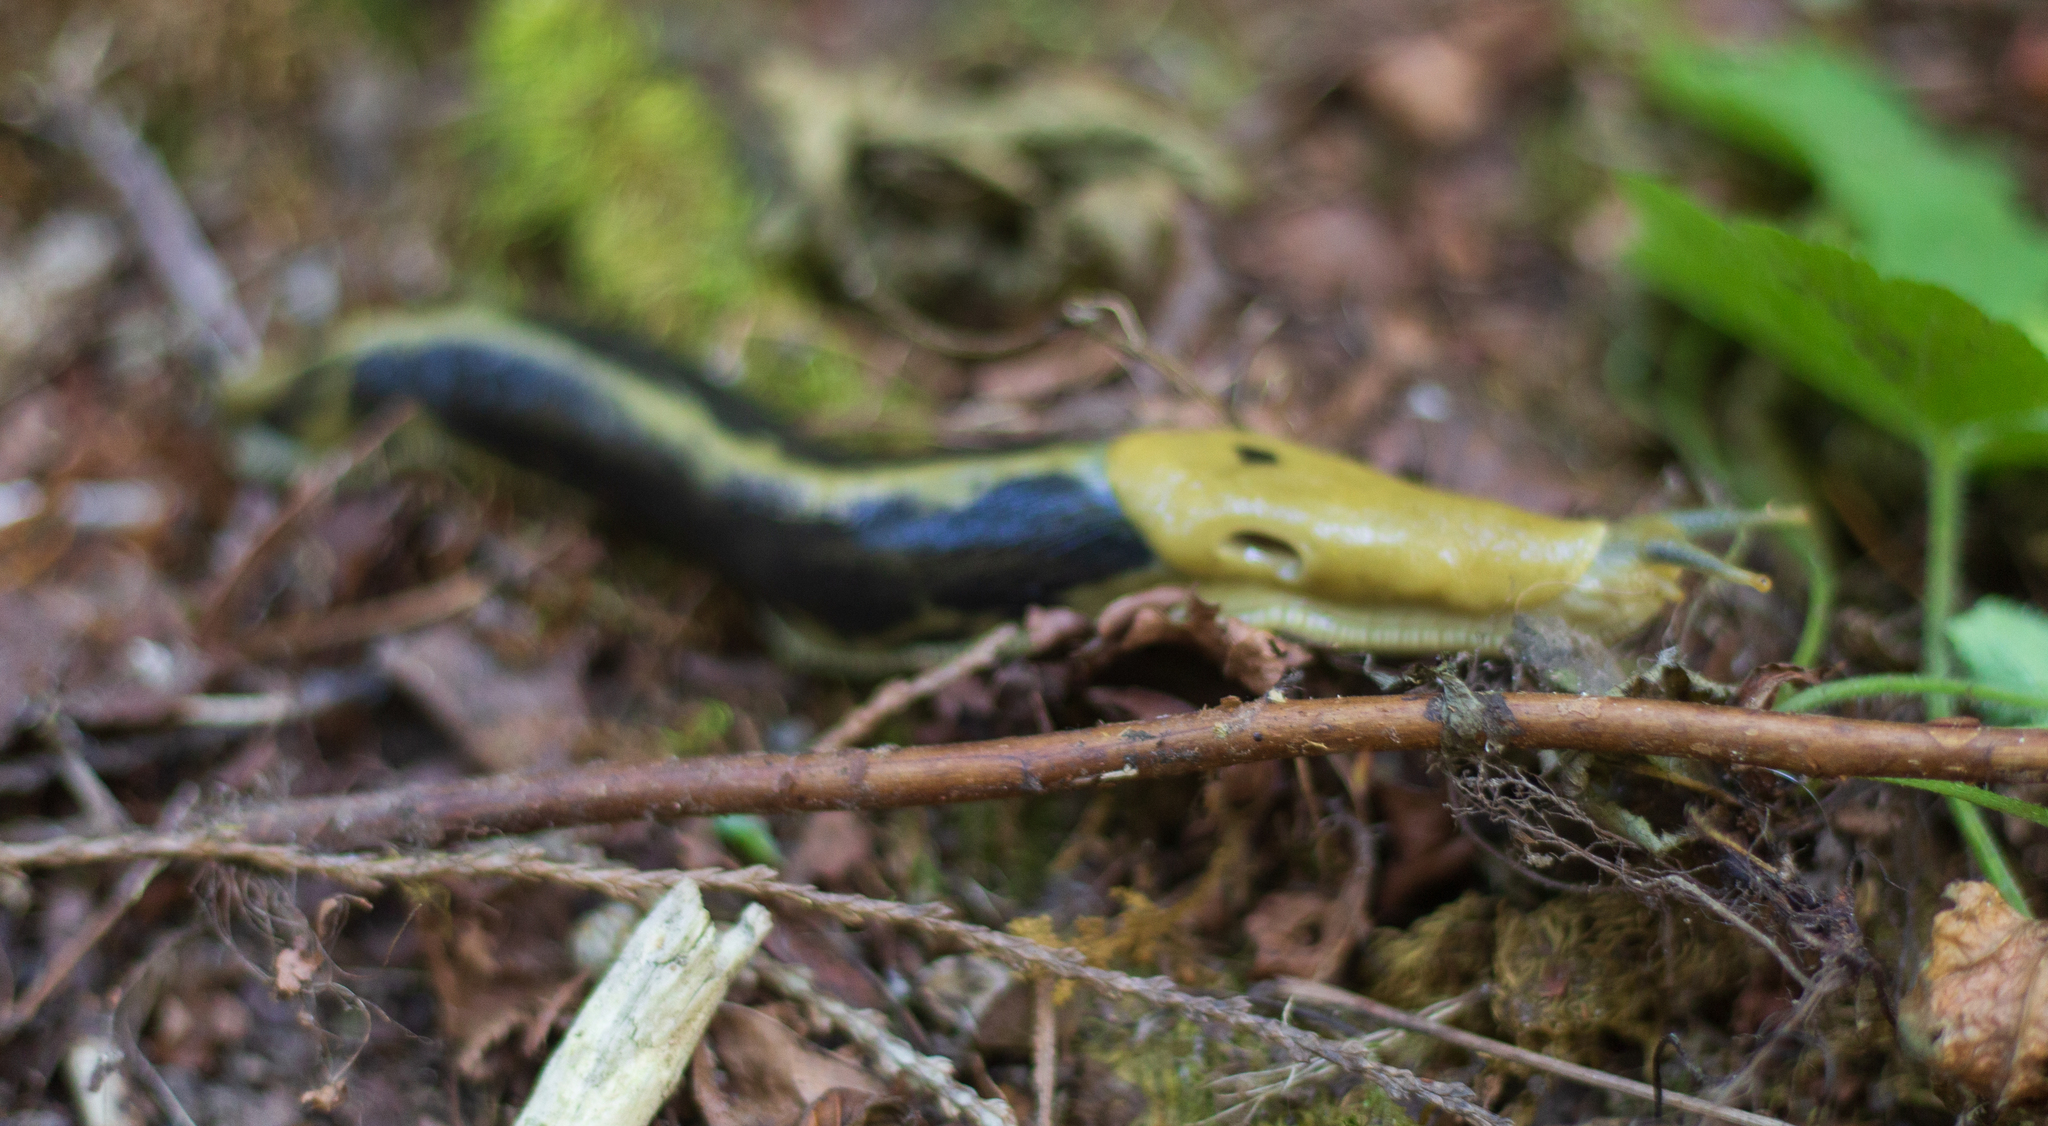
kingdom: Animalia
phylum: Mollusca
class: Gastropoda
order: Stylommatophora
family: Ariolimacidae
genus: Ariolimax
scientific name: Ariolimax columbianus
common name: Pacific banana slug
